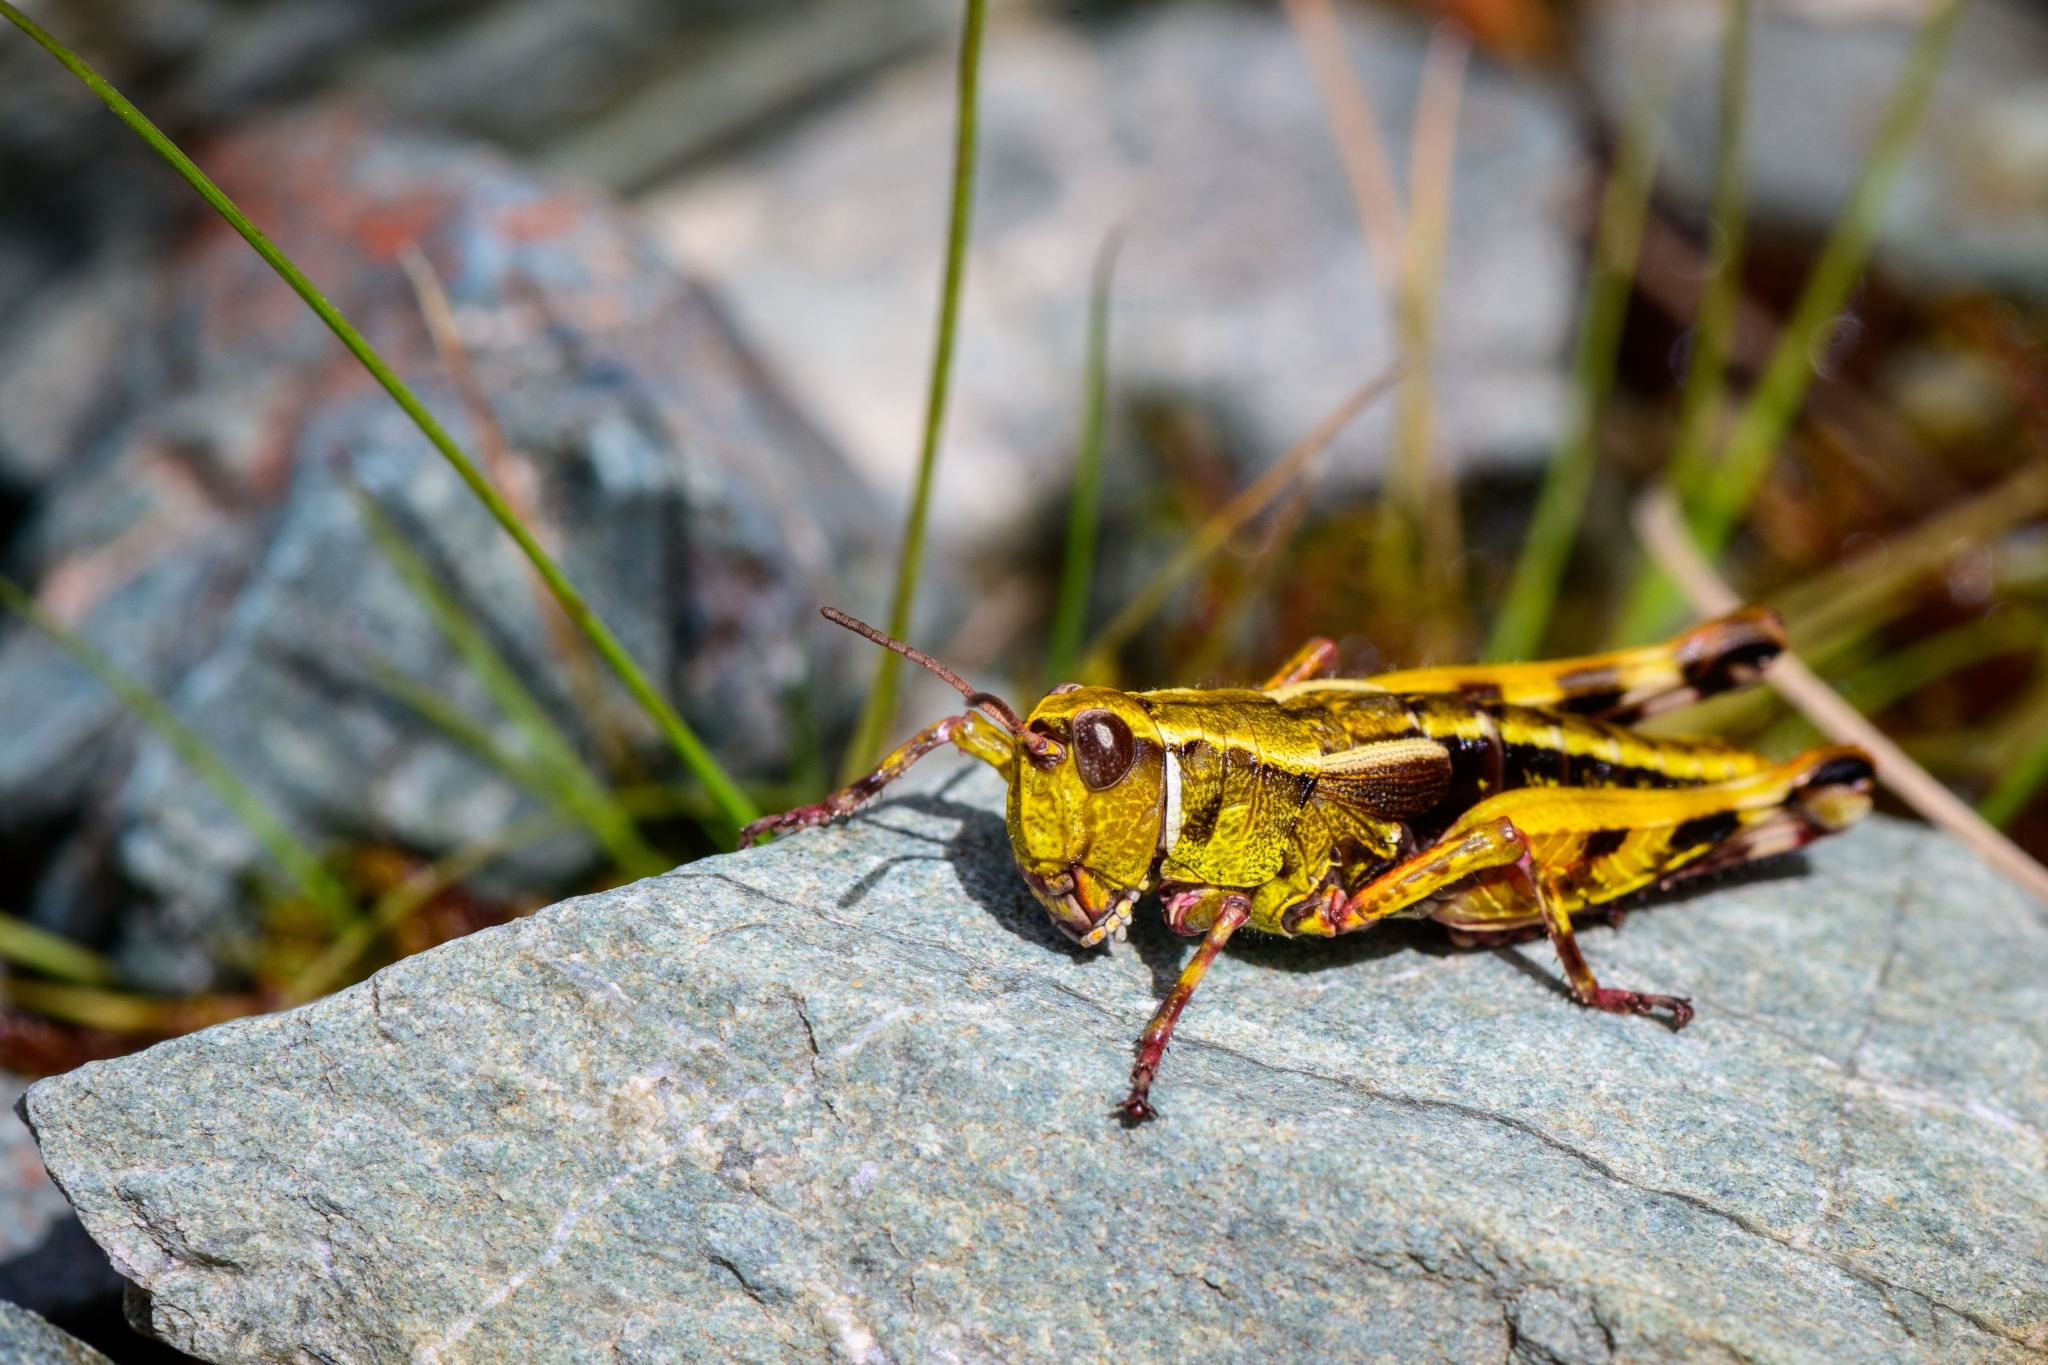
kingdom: Animalia
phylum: Arthropoda
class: Insecta
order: Orthoptera
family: Acrididae
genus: Sigaus
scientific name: Sigaus australis
